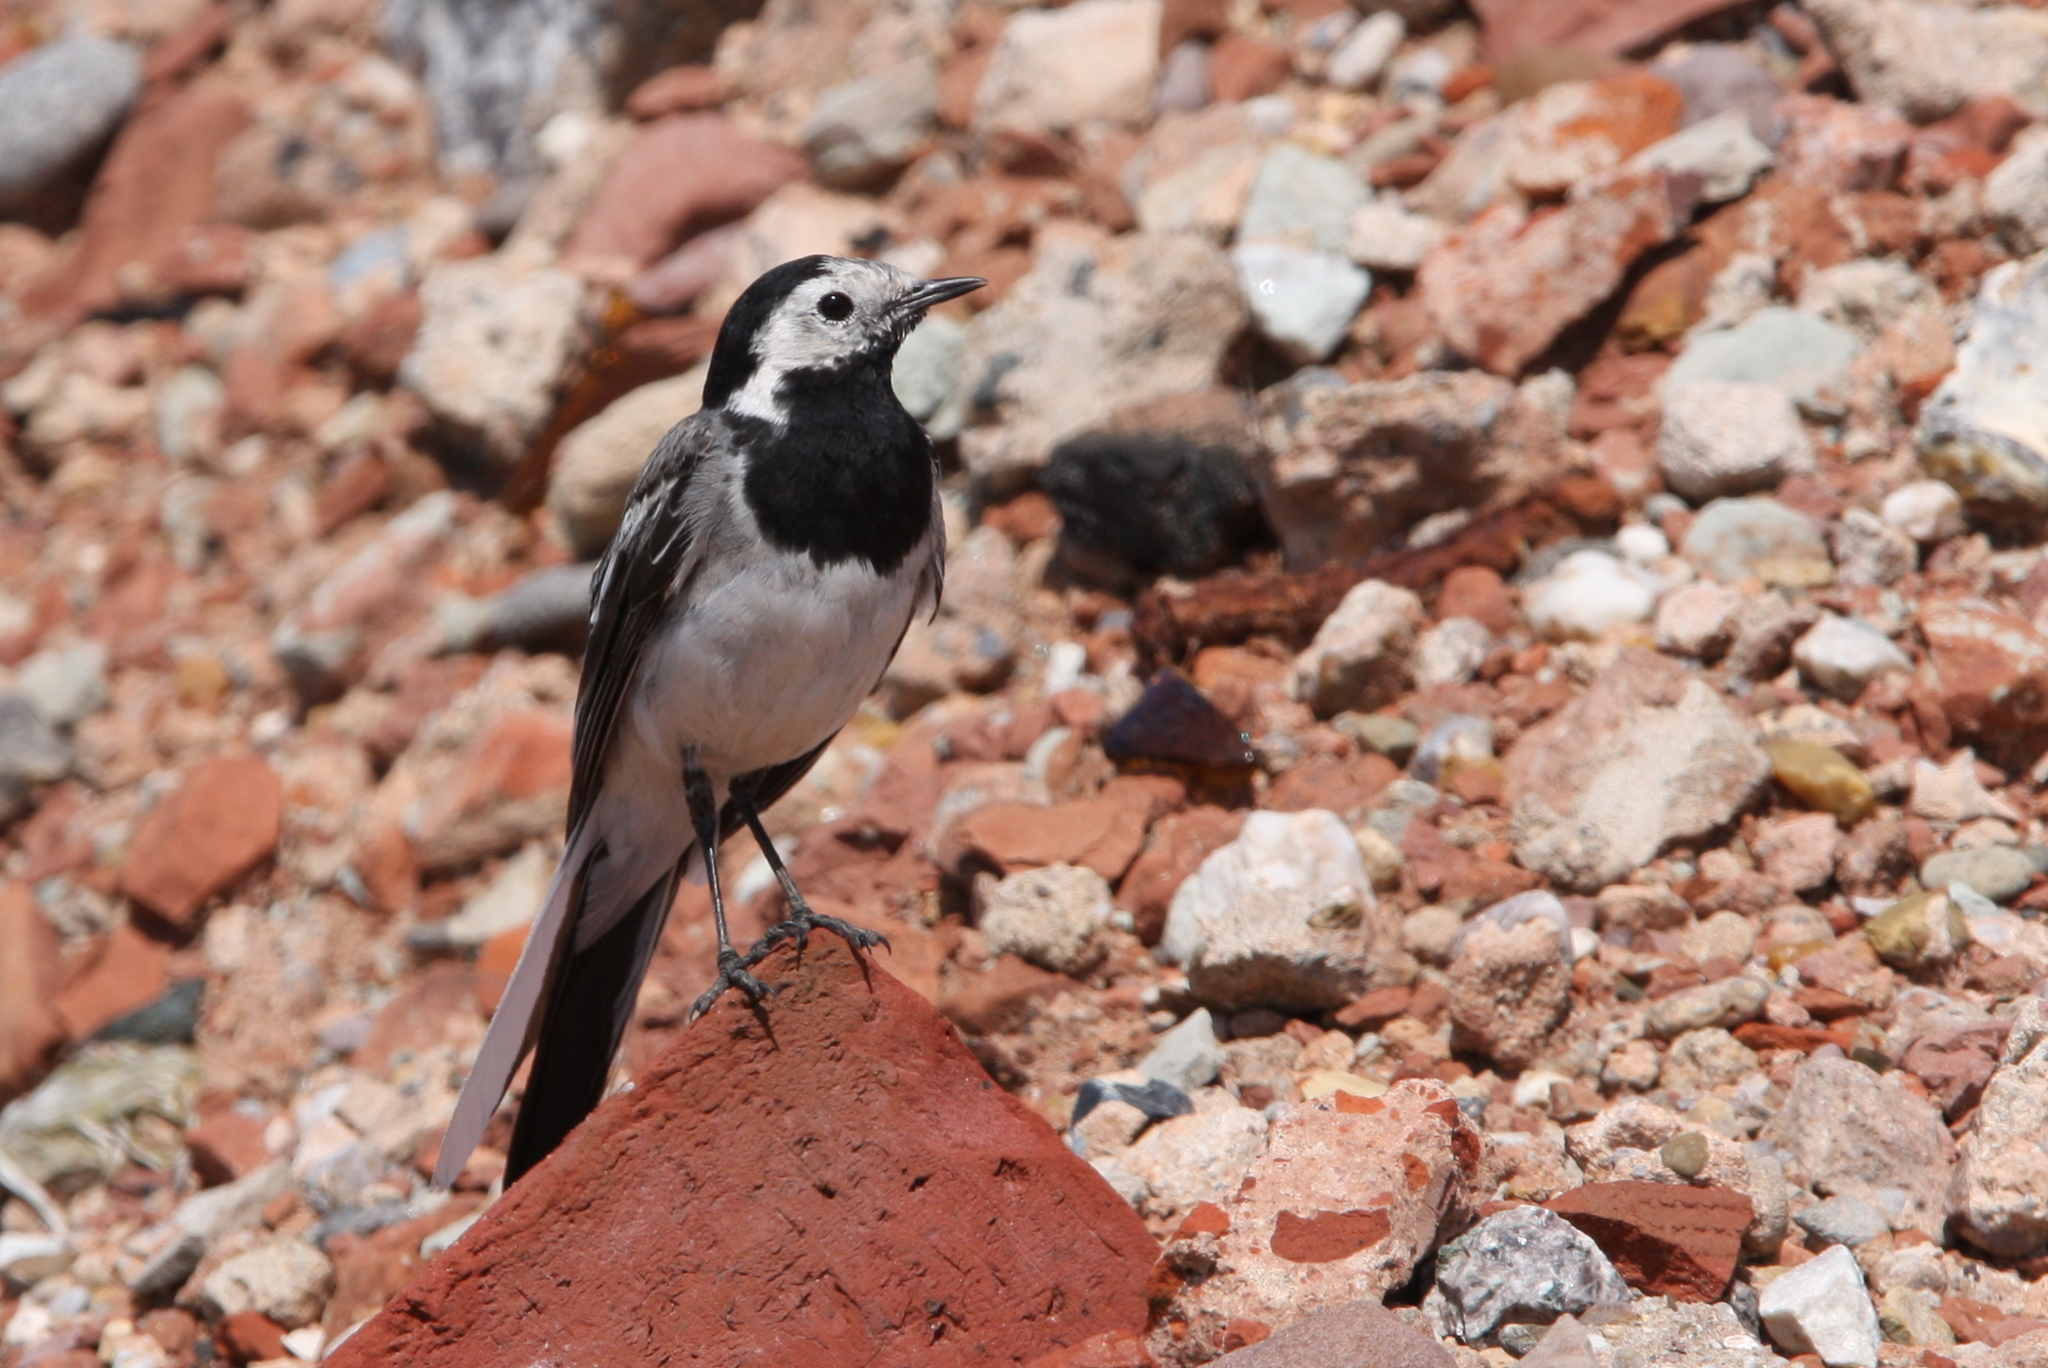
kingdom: Animalia
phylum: Chordata
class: Aves
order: Passeriformes
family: Motacillidae
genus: Motacilla
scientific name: Motacilla alba
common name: White wagtail
